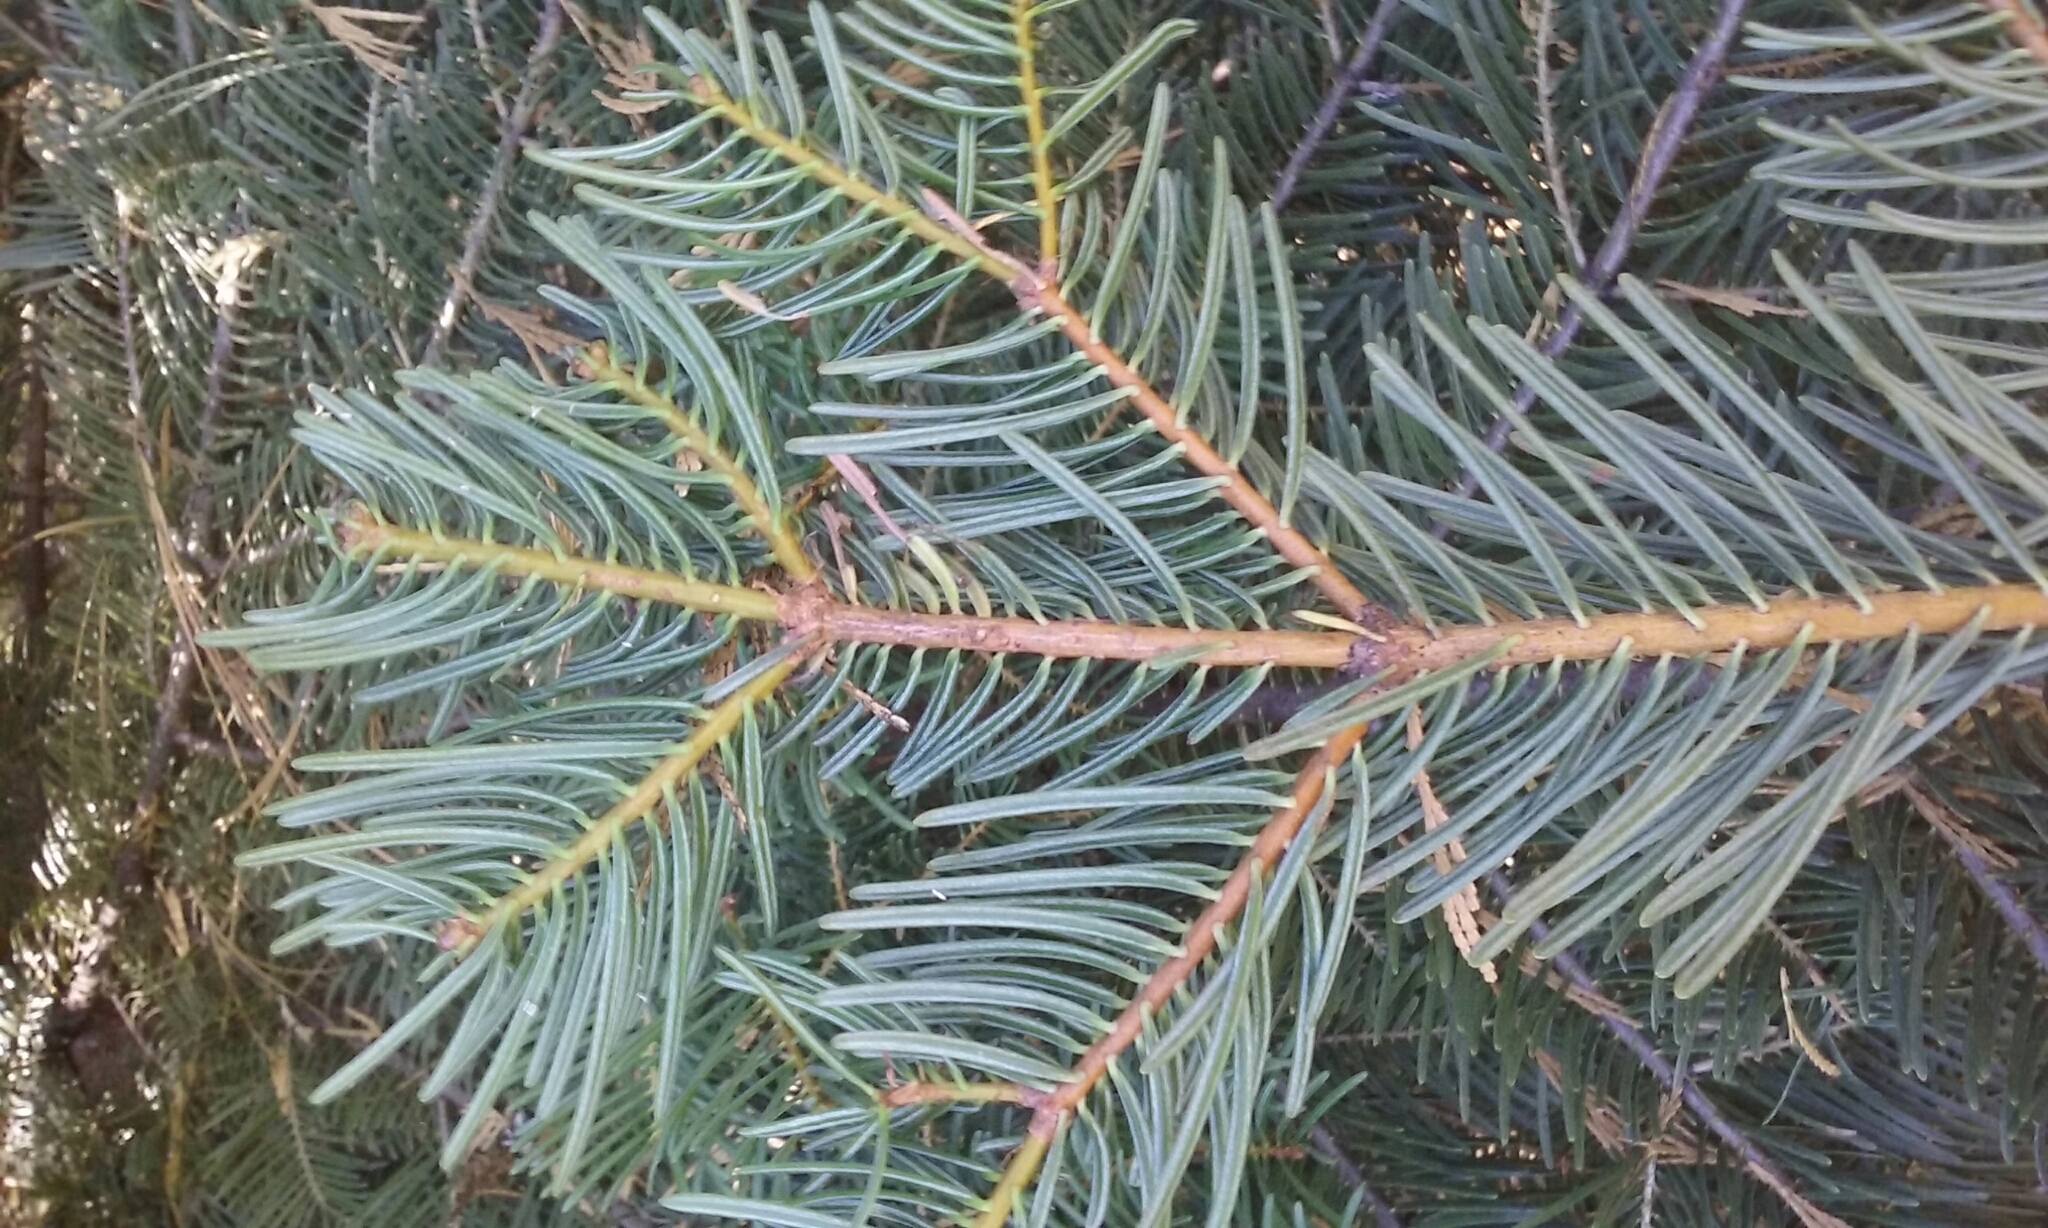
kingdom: Plantae
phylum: Tracheophyta
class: Pinopsida
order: Pinales
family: Pinaceae
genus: Abies
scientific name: Abies concolor
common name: Colorado fir
